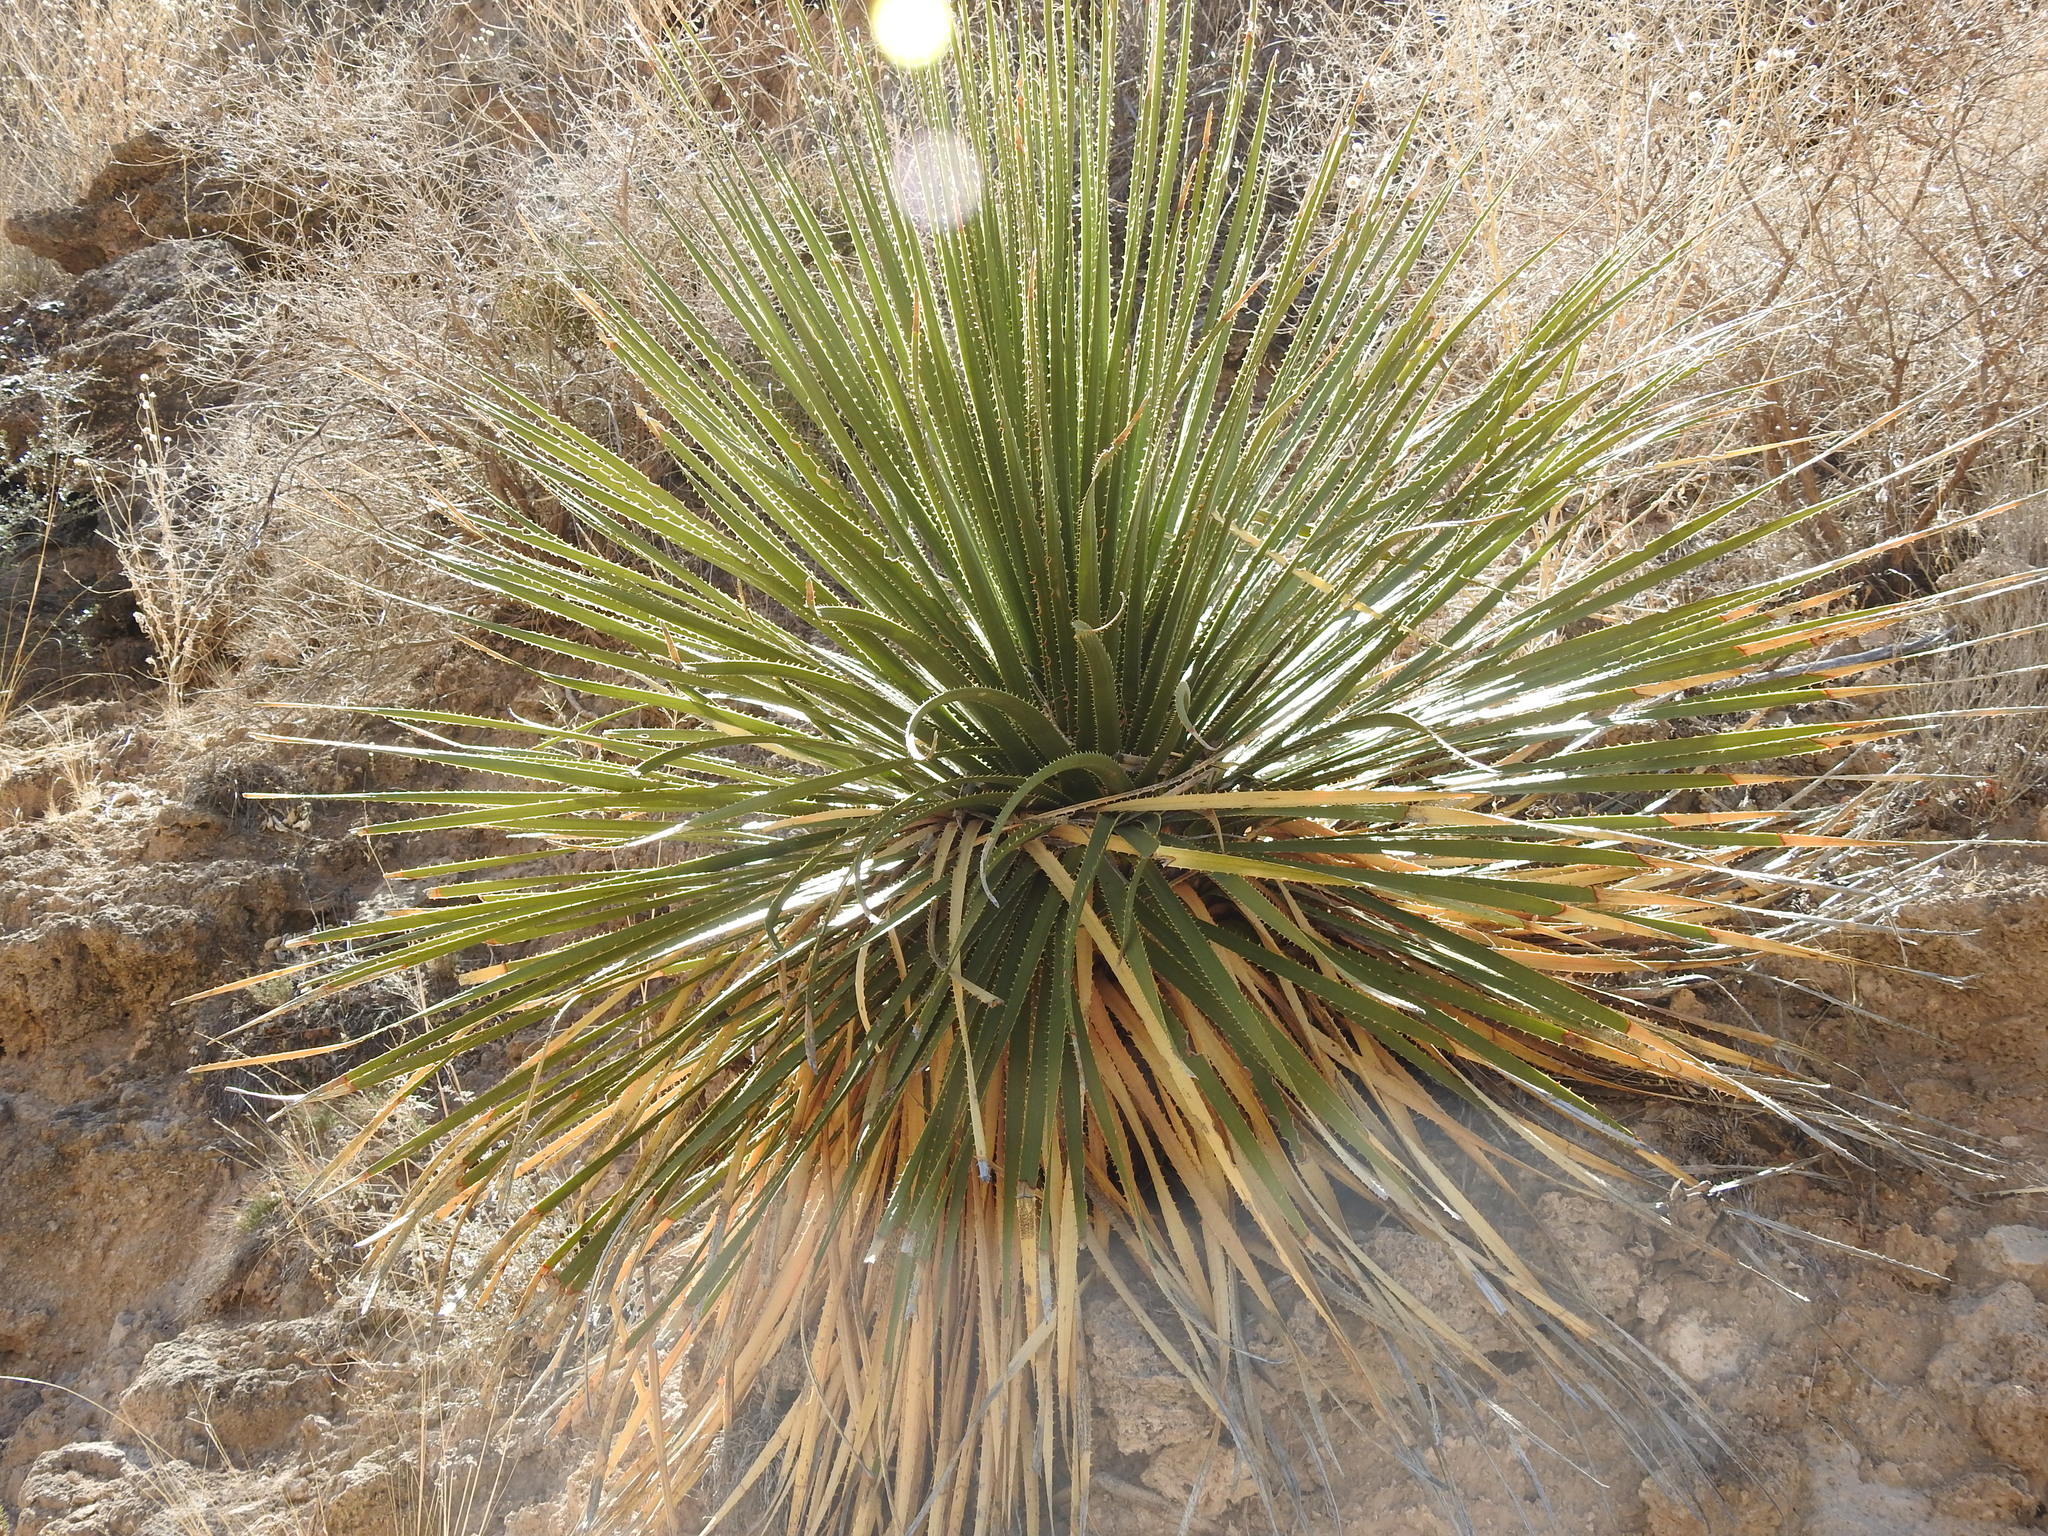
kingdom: Plantae
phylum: Tracheophyta
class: Liliopsida
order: Asparagales
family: Asparagaceae
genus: Dasylirion
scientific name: Dasylirion leiophyllum
